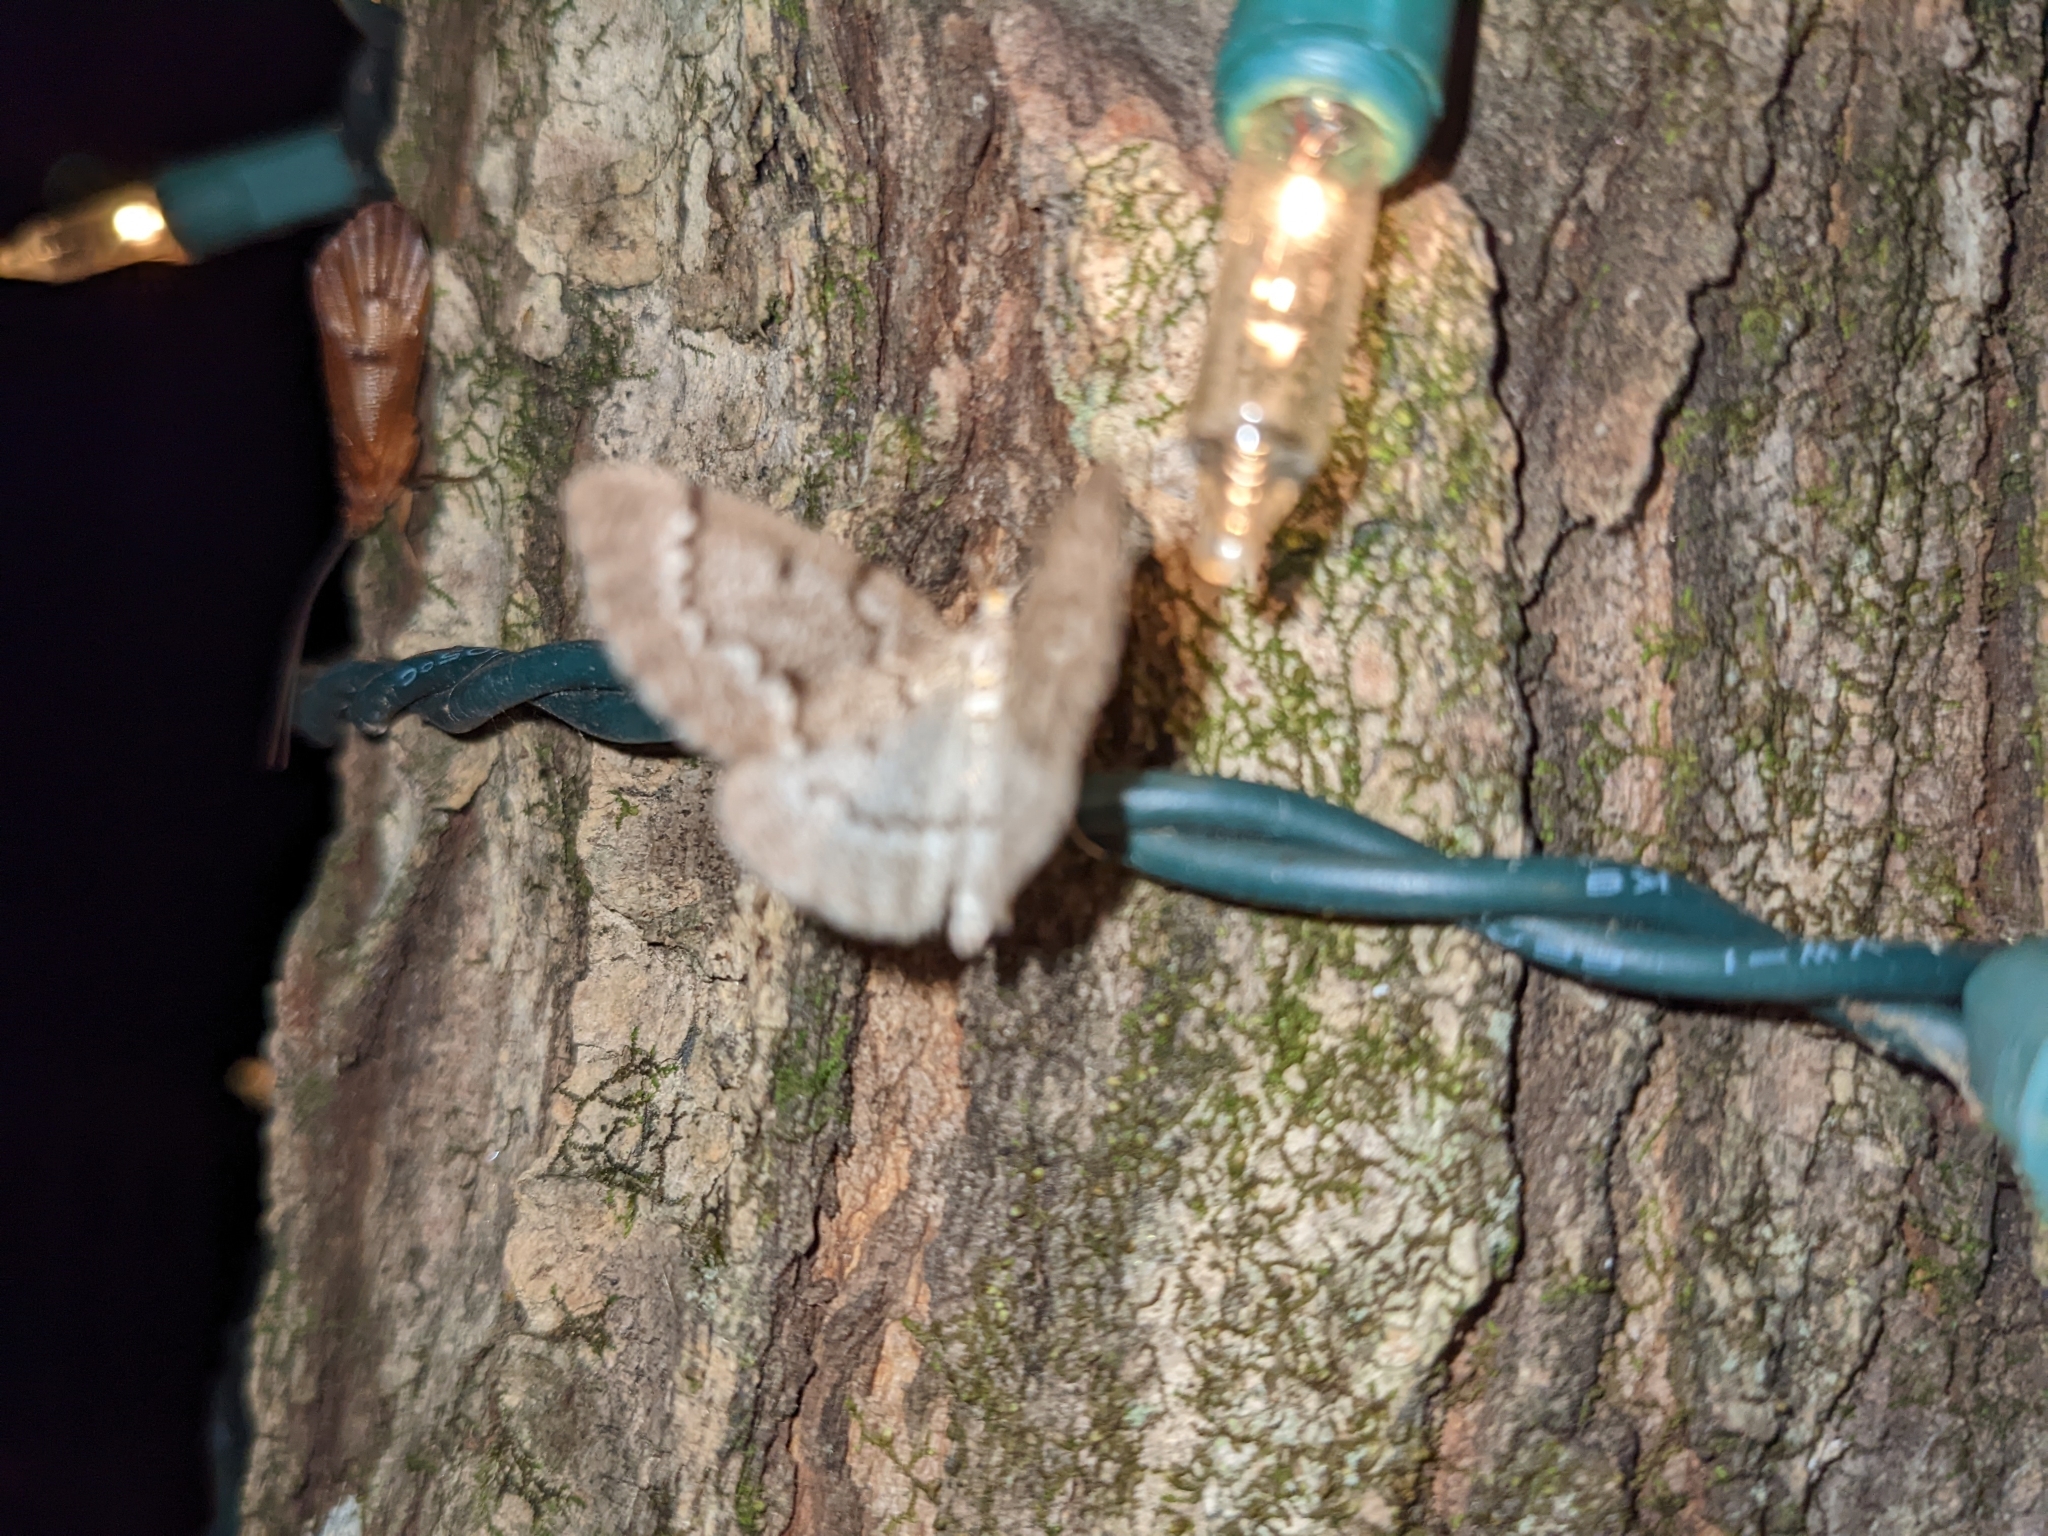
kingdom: Animalia
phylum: Arthropoda
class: Insecta
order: Lepidoptera
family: Geometridae
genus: Nepytia
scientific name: Nepytia canosaria
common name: False hemlock looper
